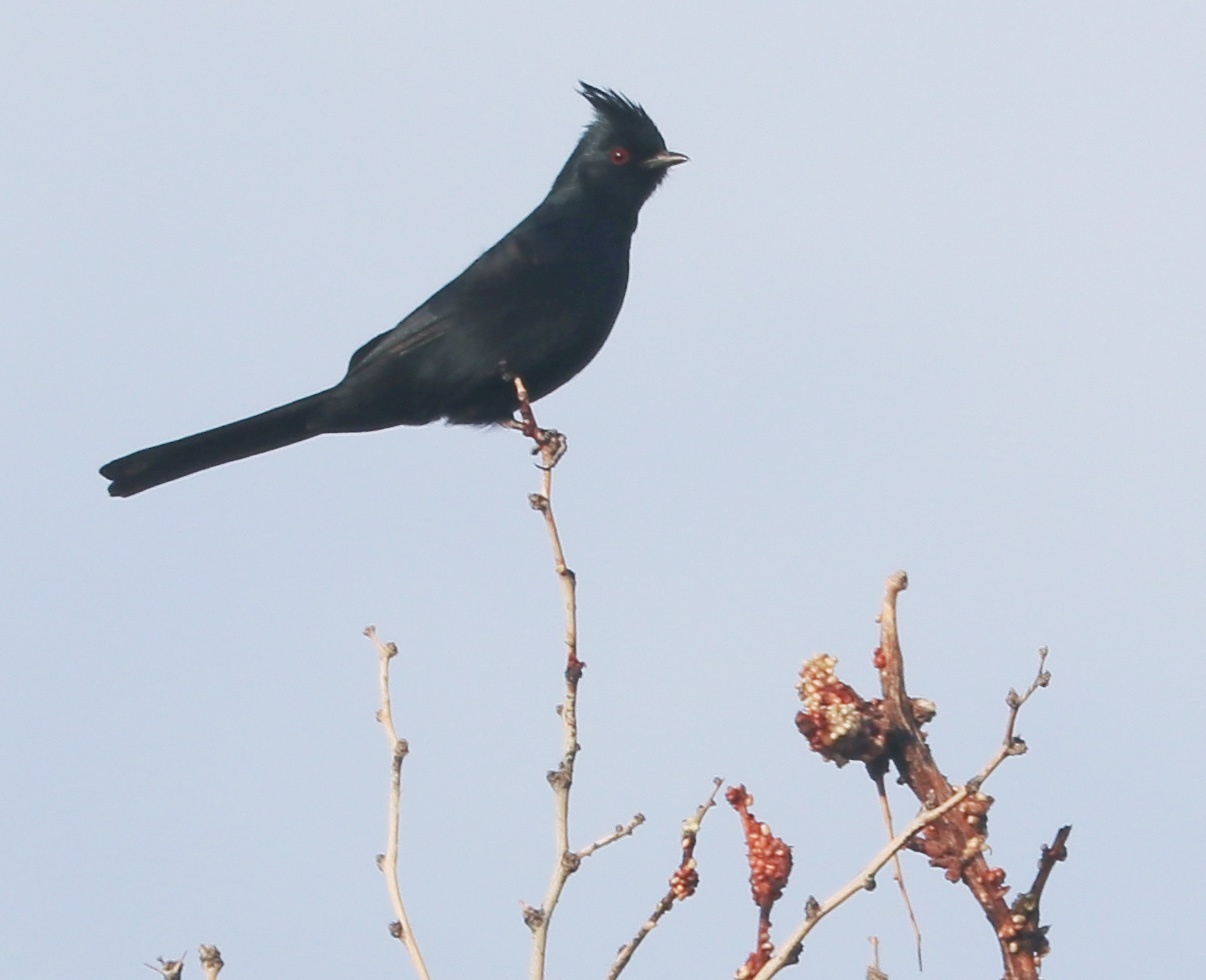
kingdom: Animalia
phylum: Chordata
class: Aves
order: Passeriformes
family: Ptilogonatidae
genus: Phainopepla
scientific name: Phainopepla nitens
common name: Phainopepla
